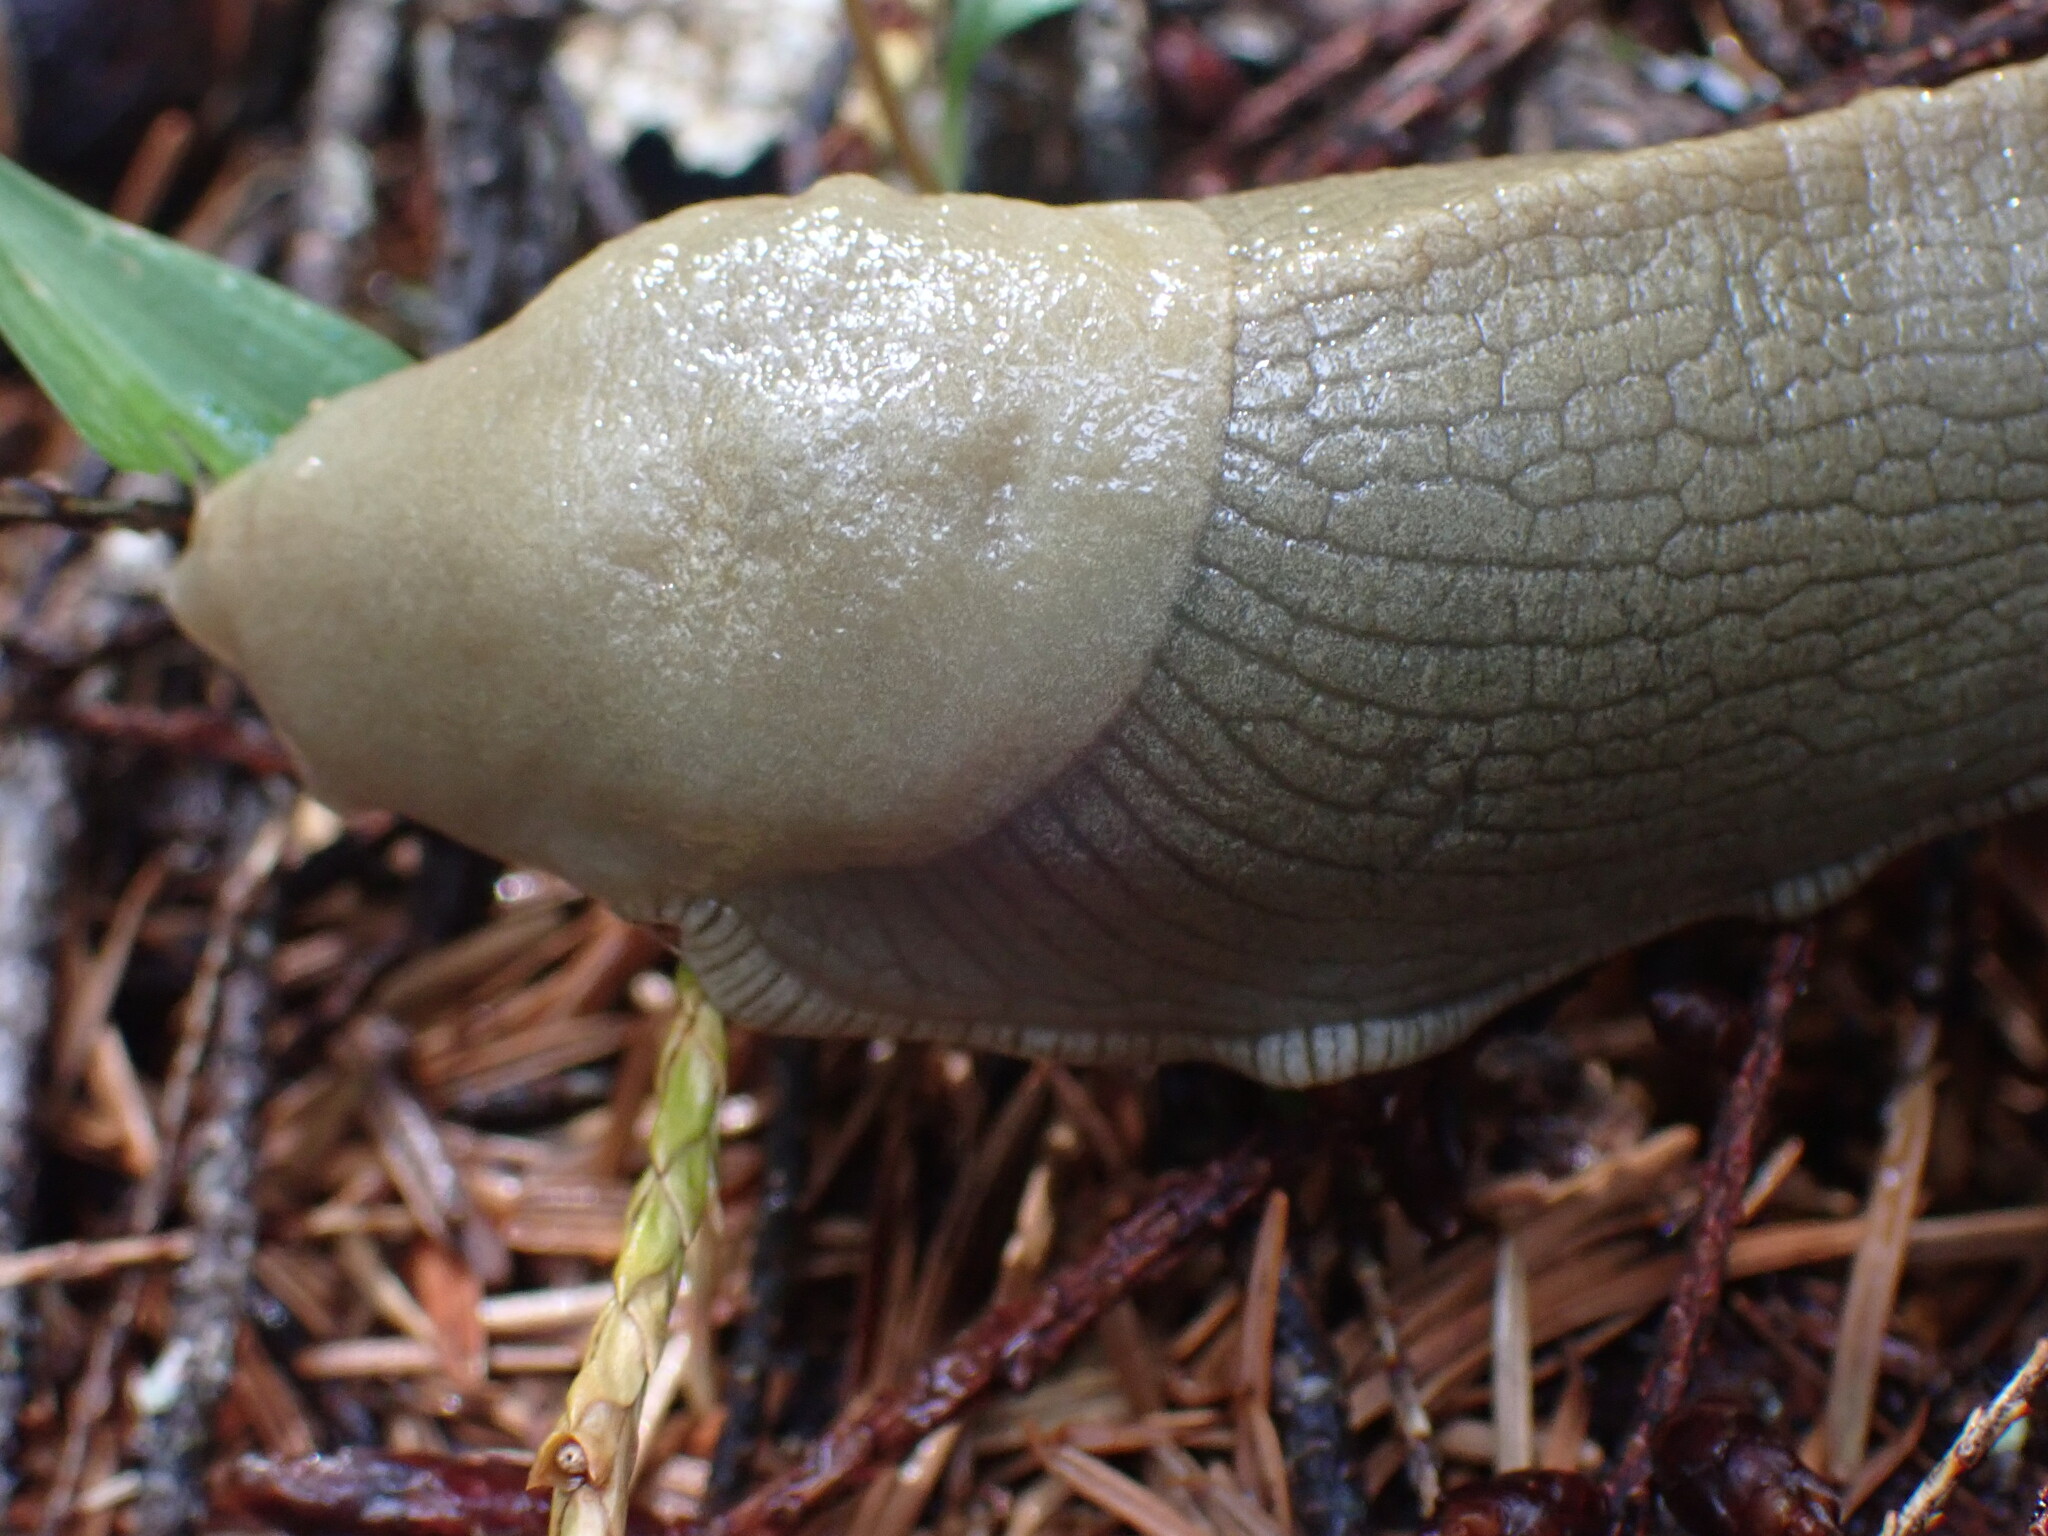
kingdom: Animalia
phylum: Mollusca
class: Gastropoda
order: Stylommatophora
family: Ariolimacidae
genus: Ariolimax
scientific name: Ariolimax columbianus
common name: Pacific banana slug
